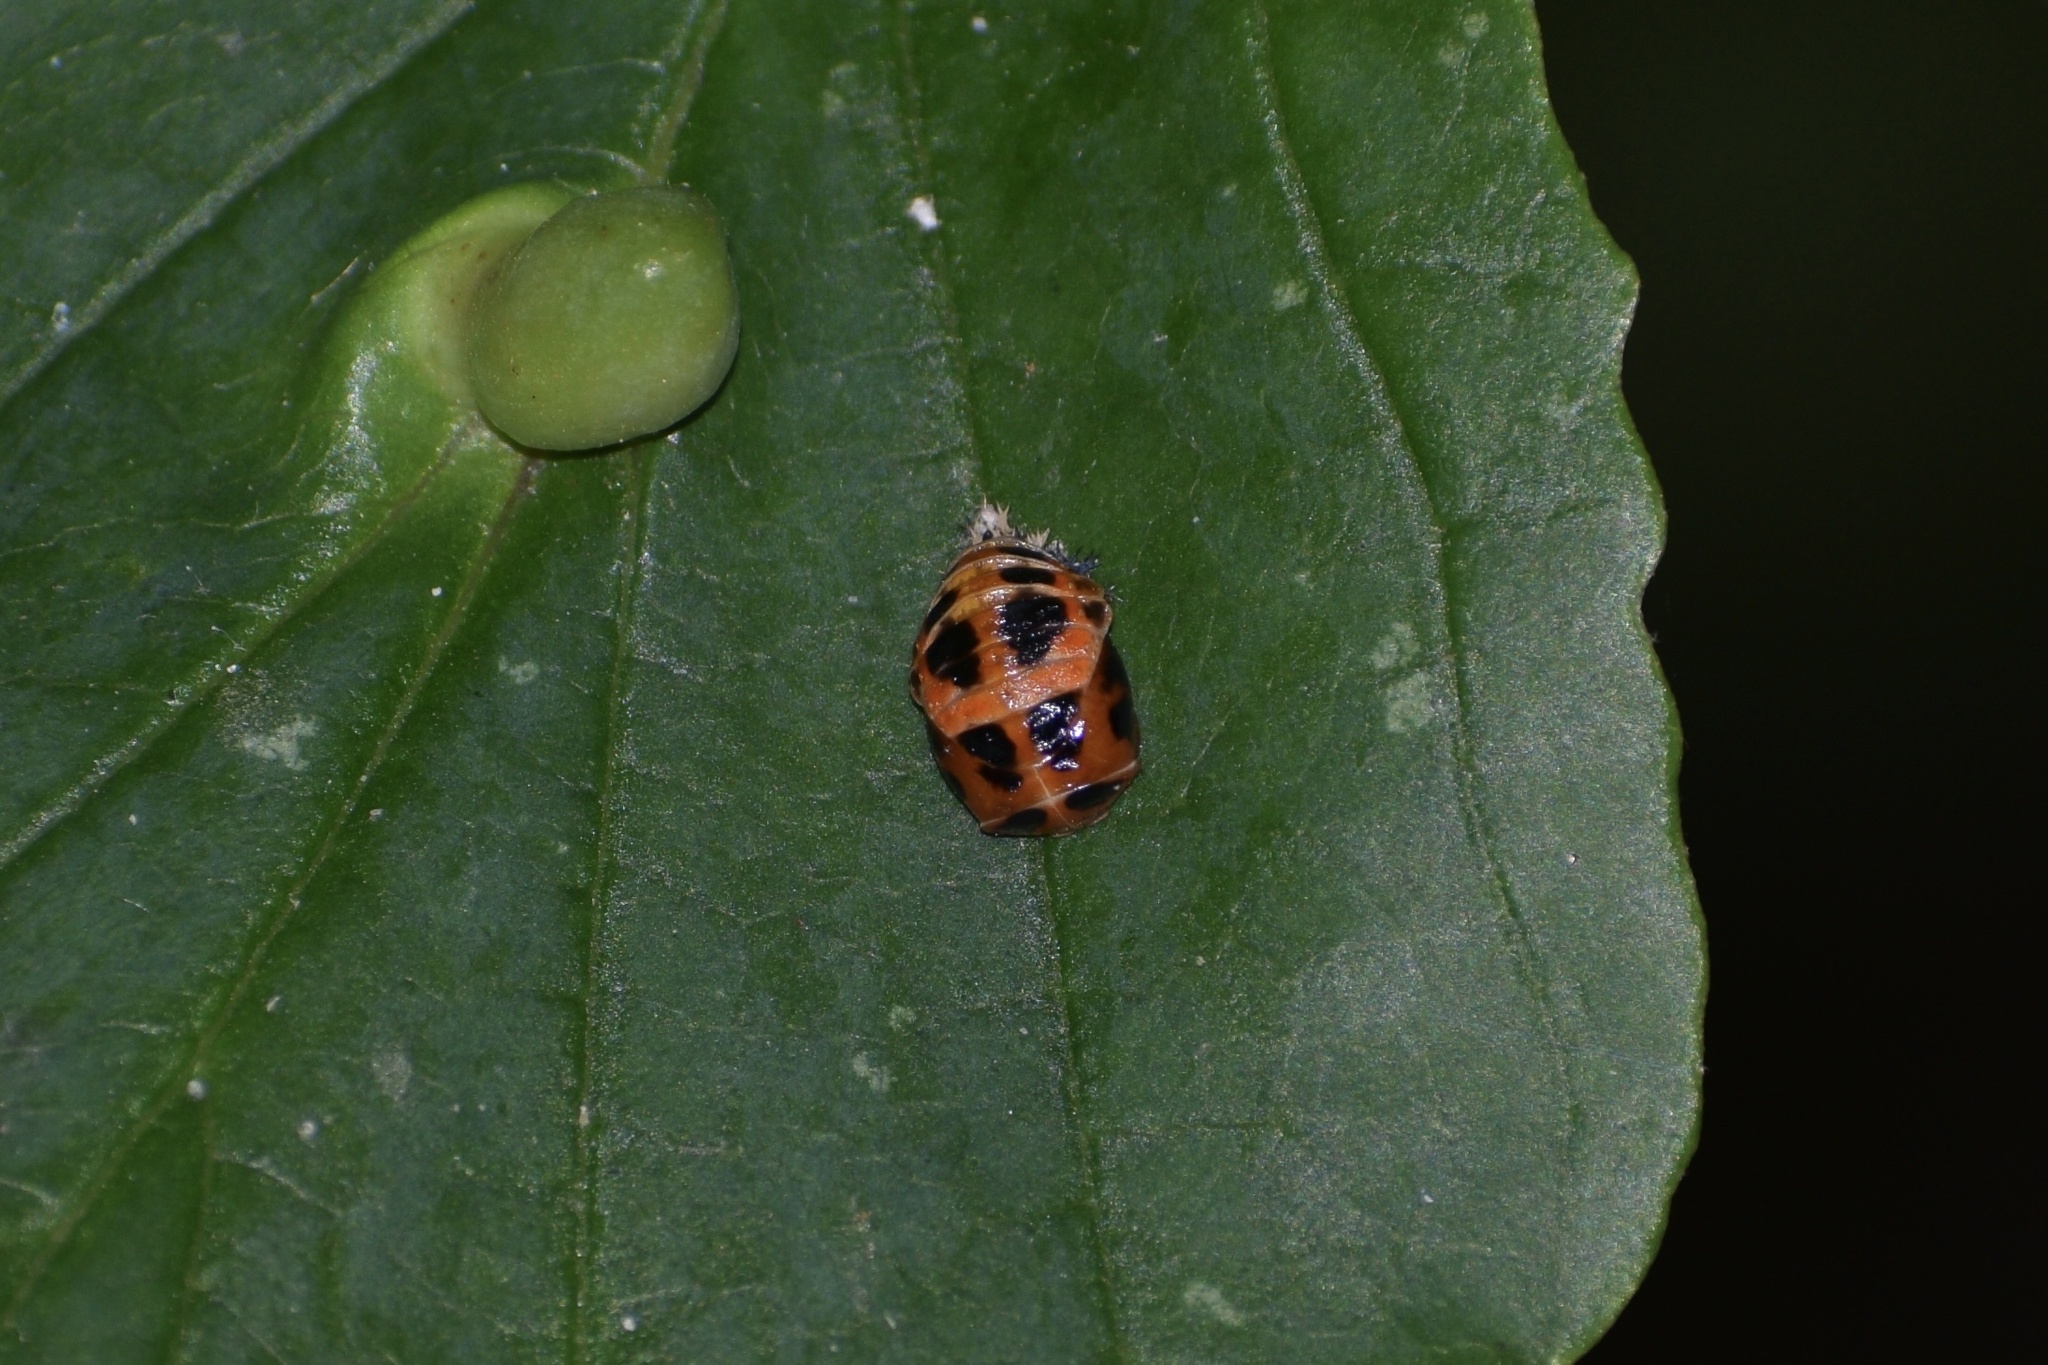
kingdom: Animalia
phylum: Arthropoda
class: Insecta
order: Coleoptera
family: Coccinellidae
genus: Harmonia
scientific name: Harmonia axyridis
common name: Harlequin ladybird
